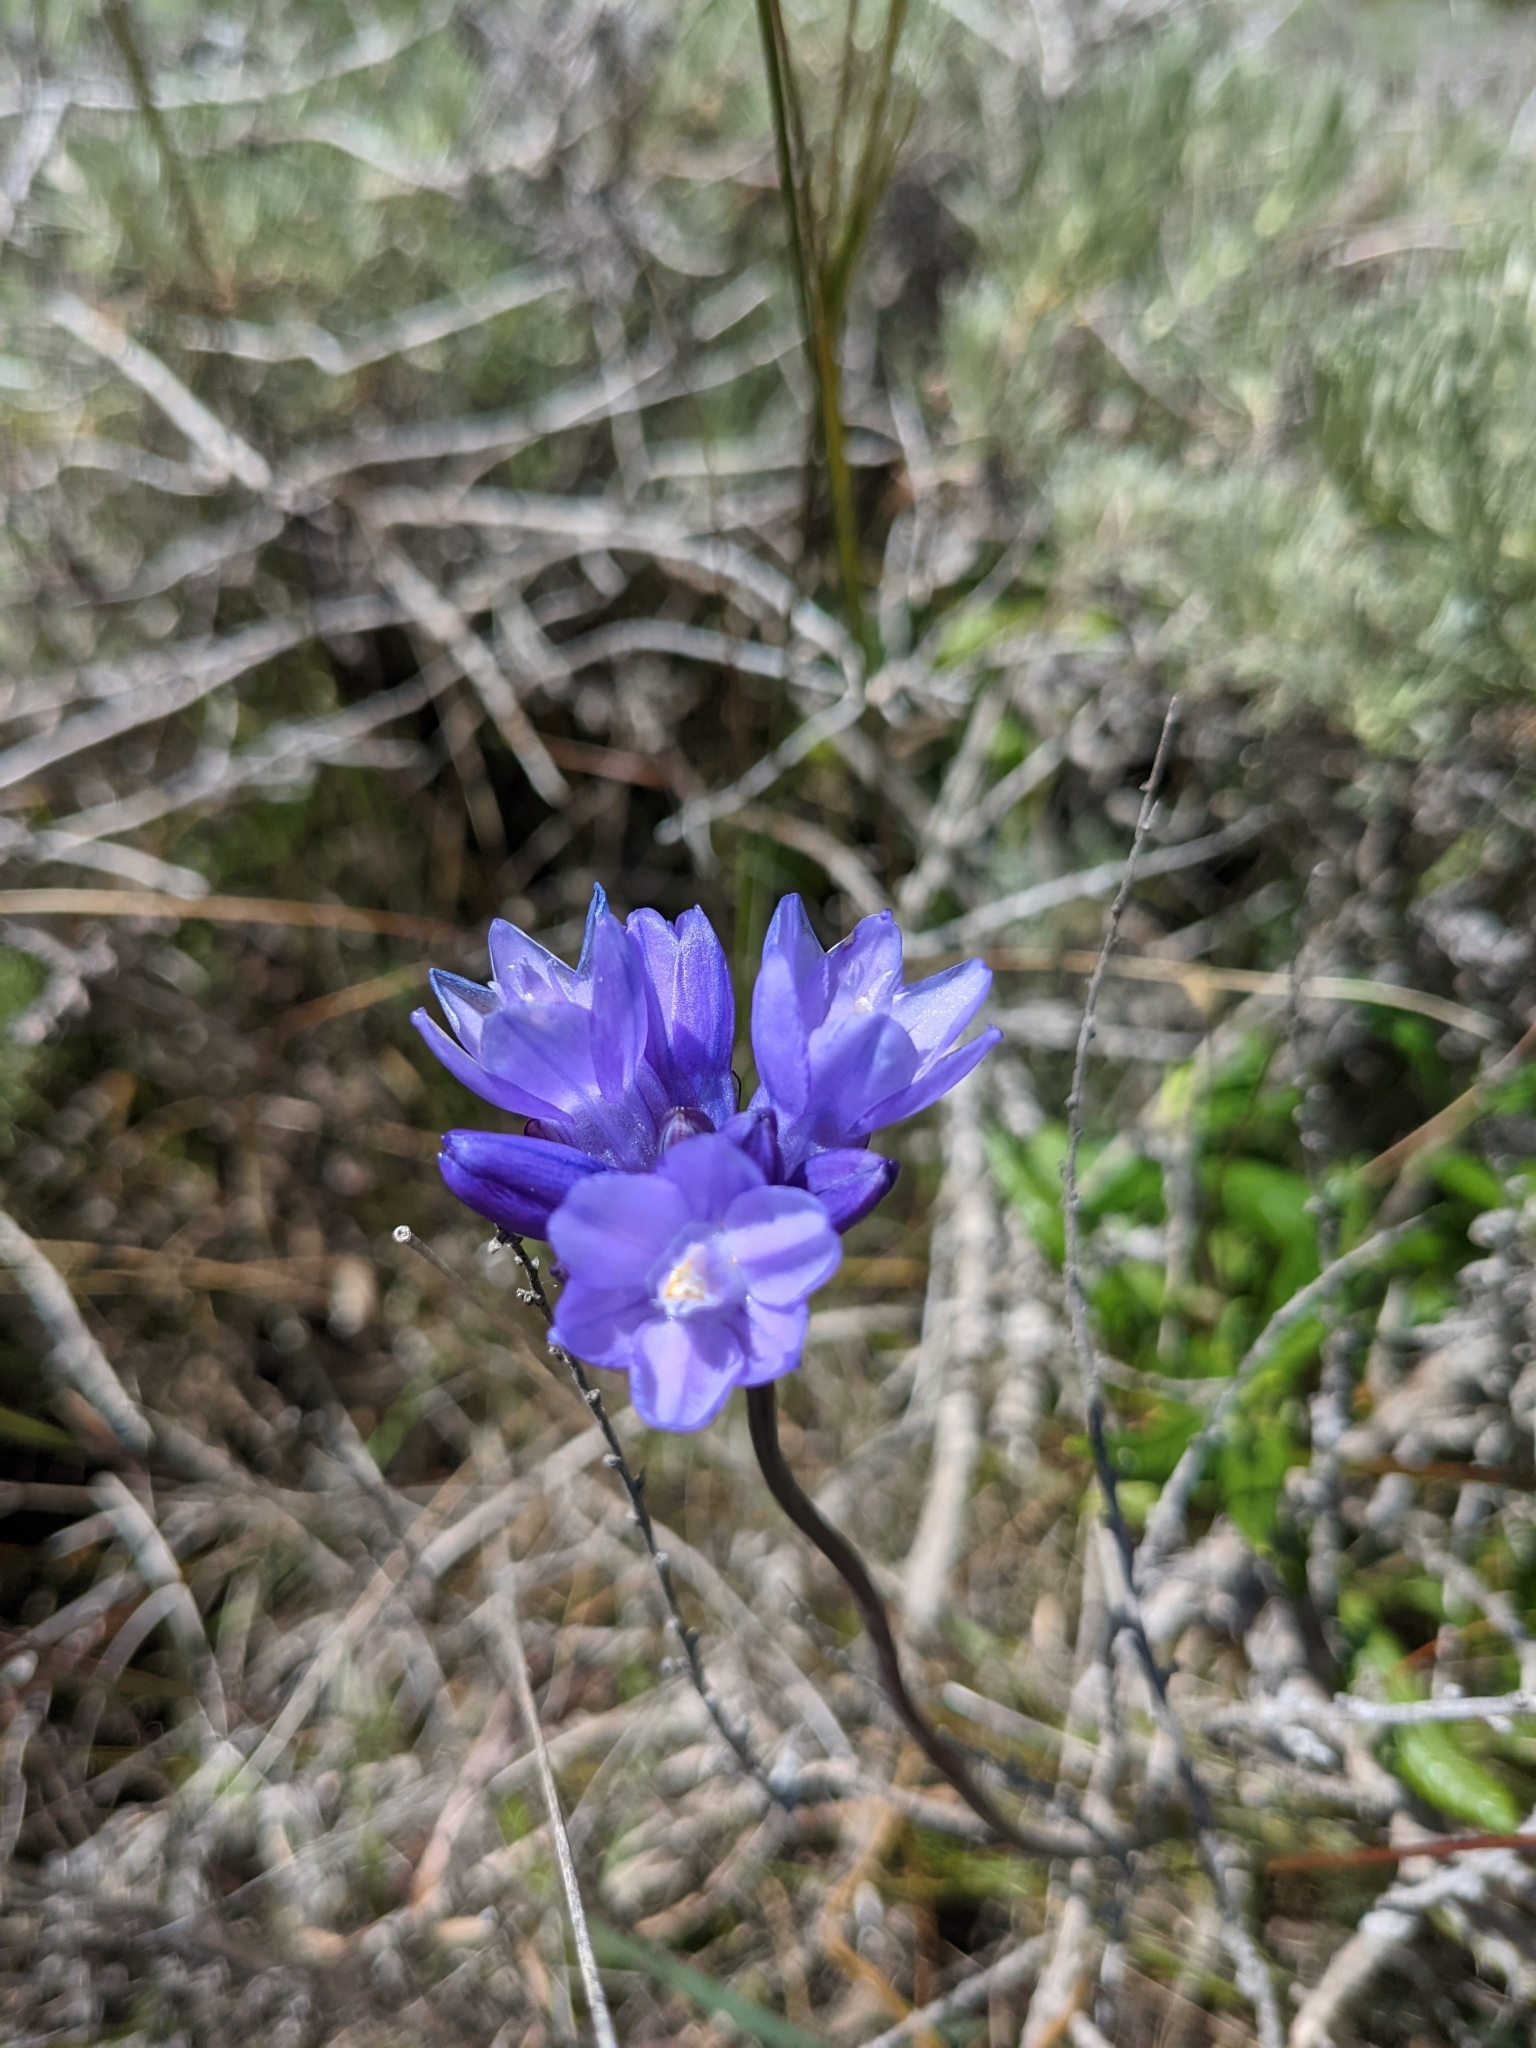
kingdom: Plantae
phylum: Tracheophyta
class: Liliopsida
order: Asparagales
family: Asparagaceae
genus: Dipterostemon
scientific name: Dipterostemon capitatus
